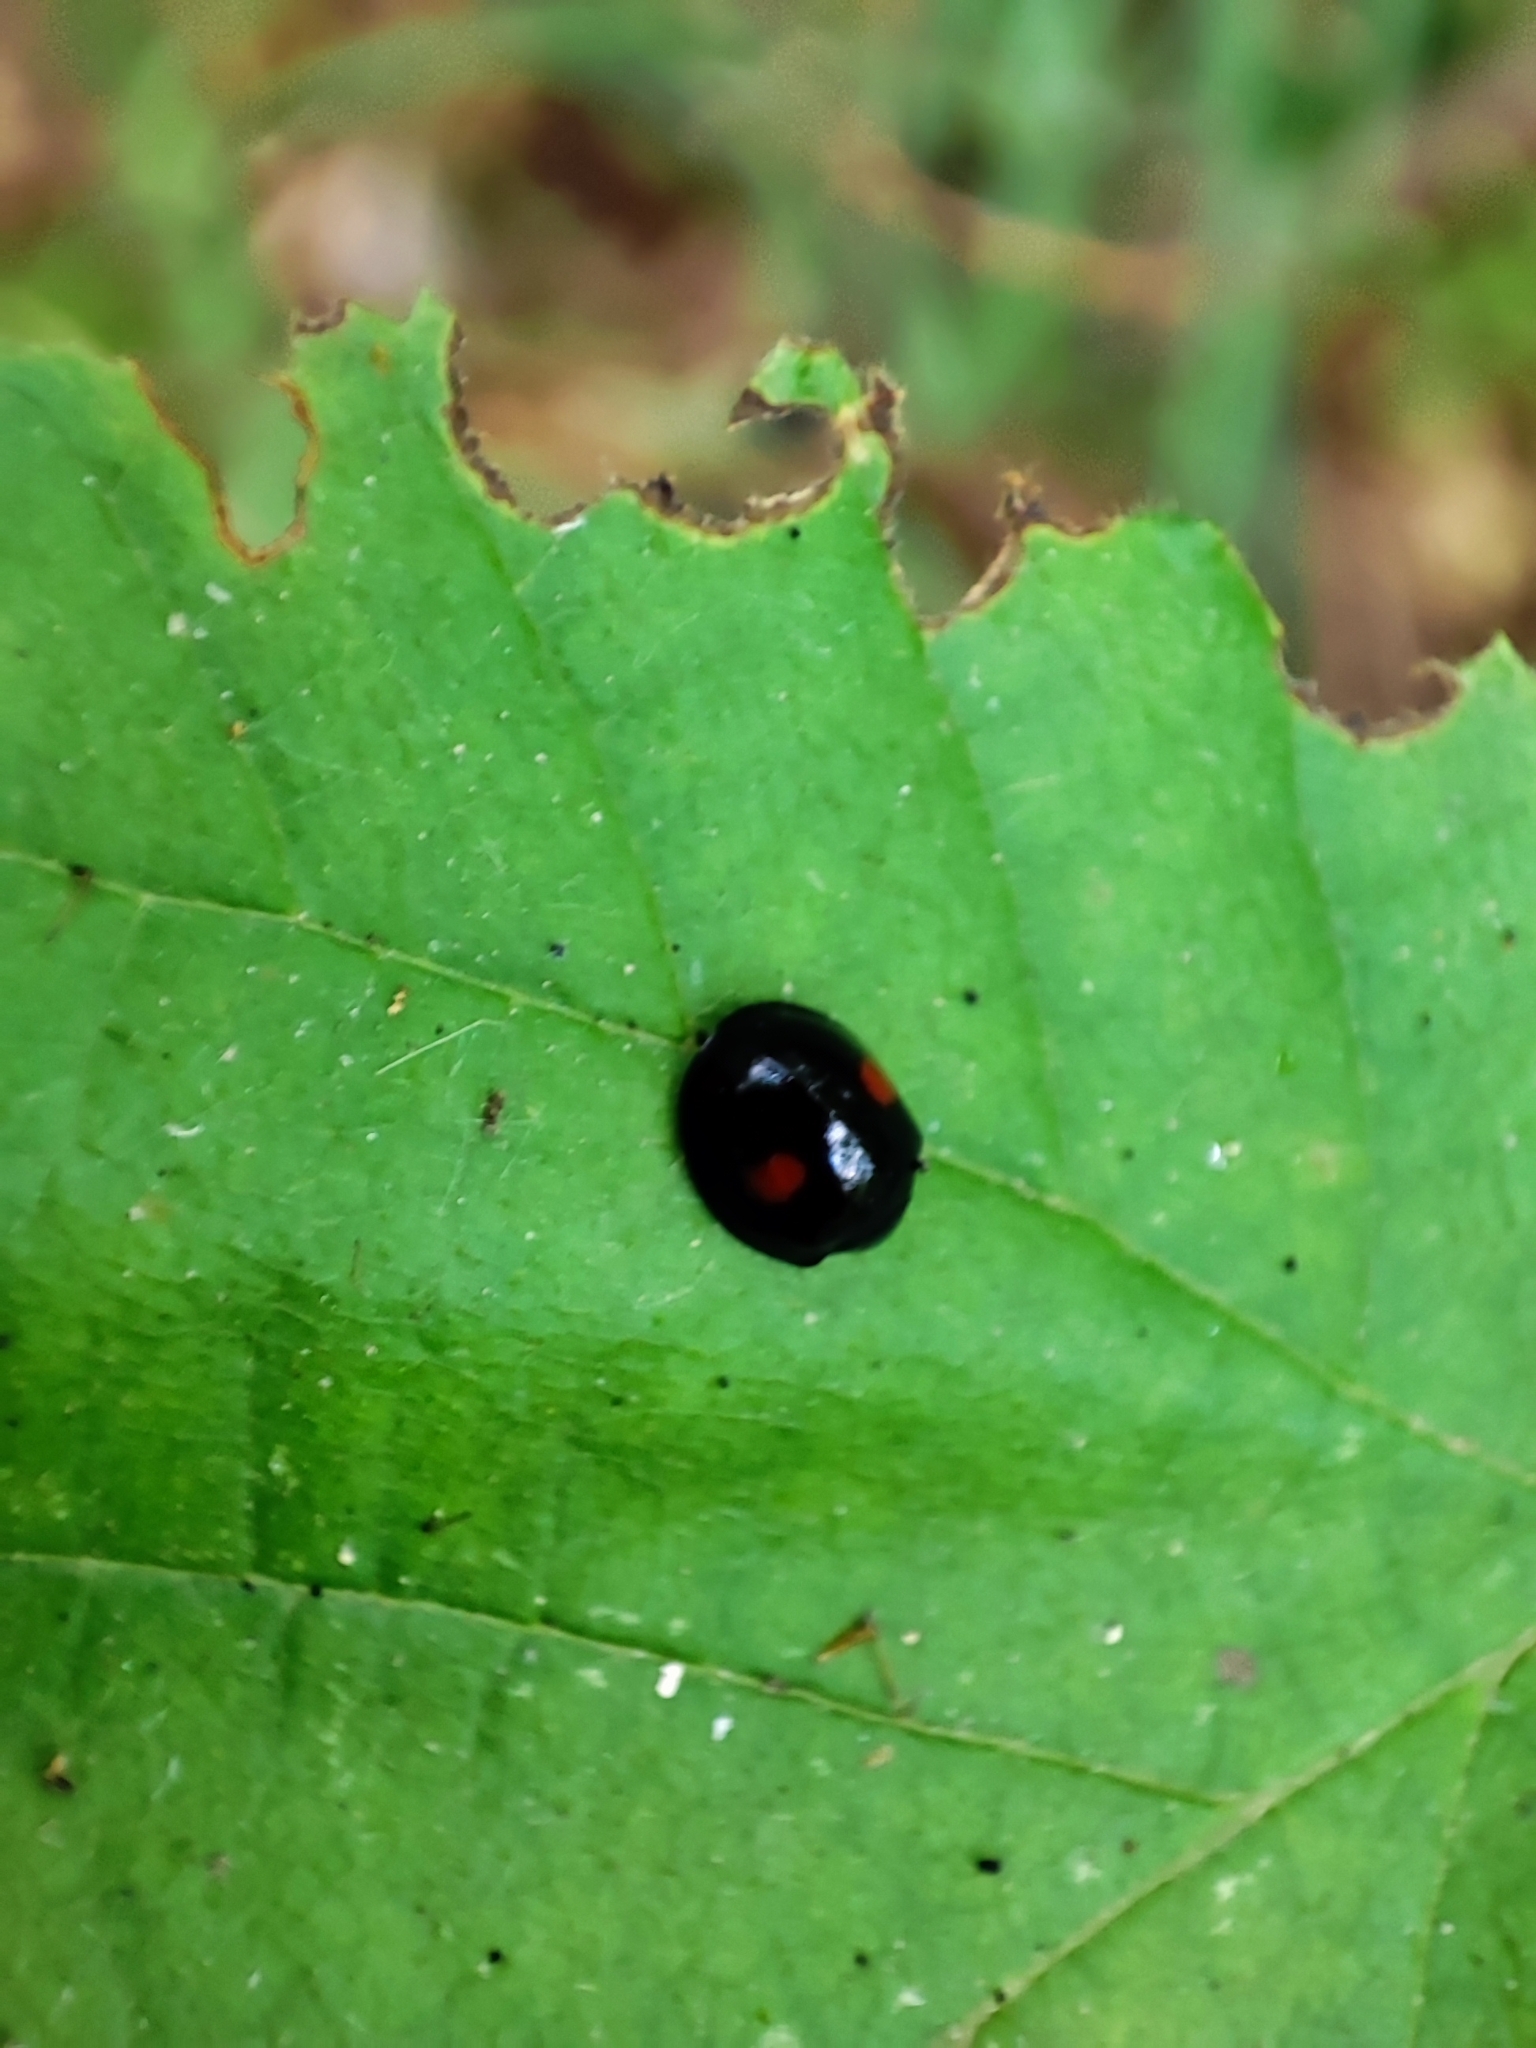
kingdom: Animalia
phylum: Arthropoda
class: Insecta
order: Coleoptera
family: Coccinellidae
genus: Chilocorus
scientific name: Chilocorus renipustulatus
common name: Kidney-spot ladybird
